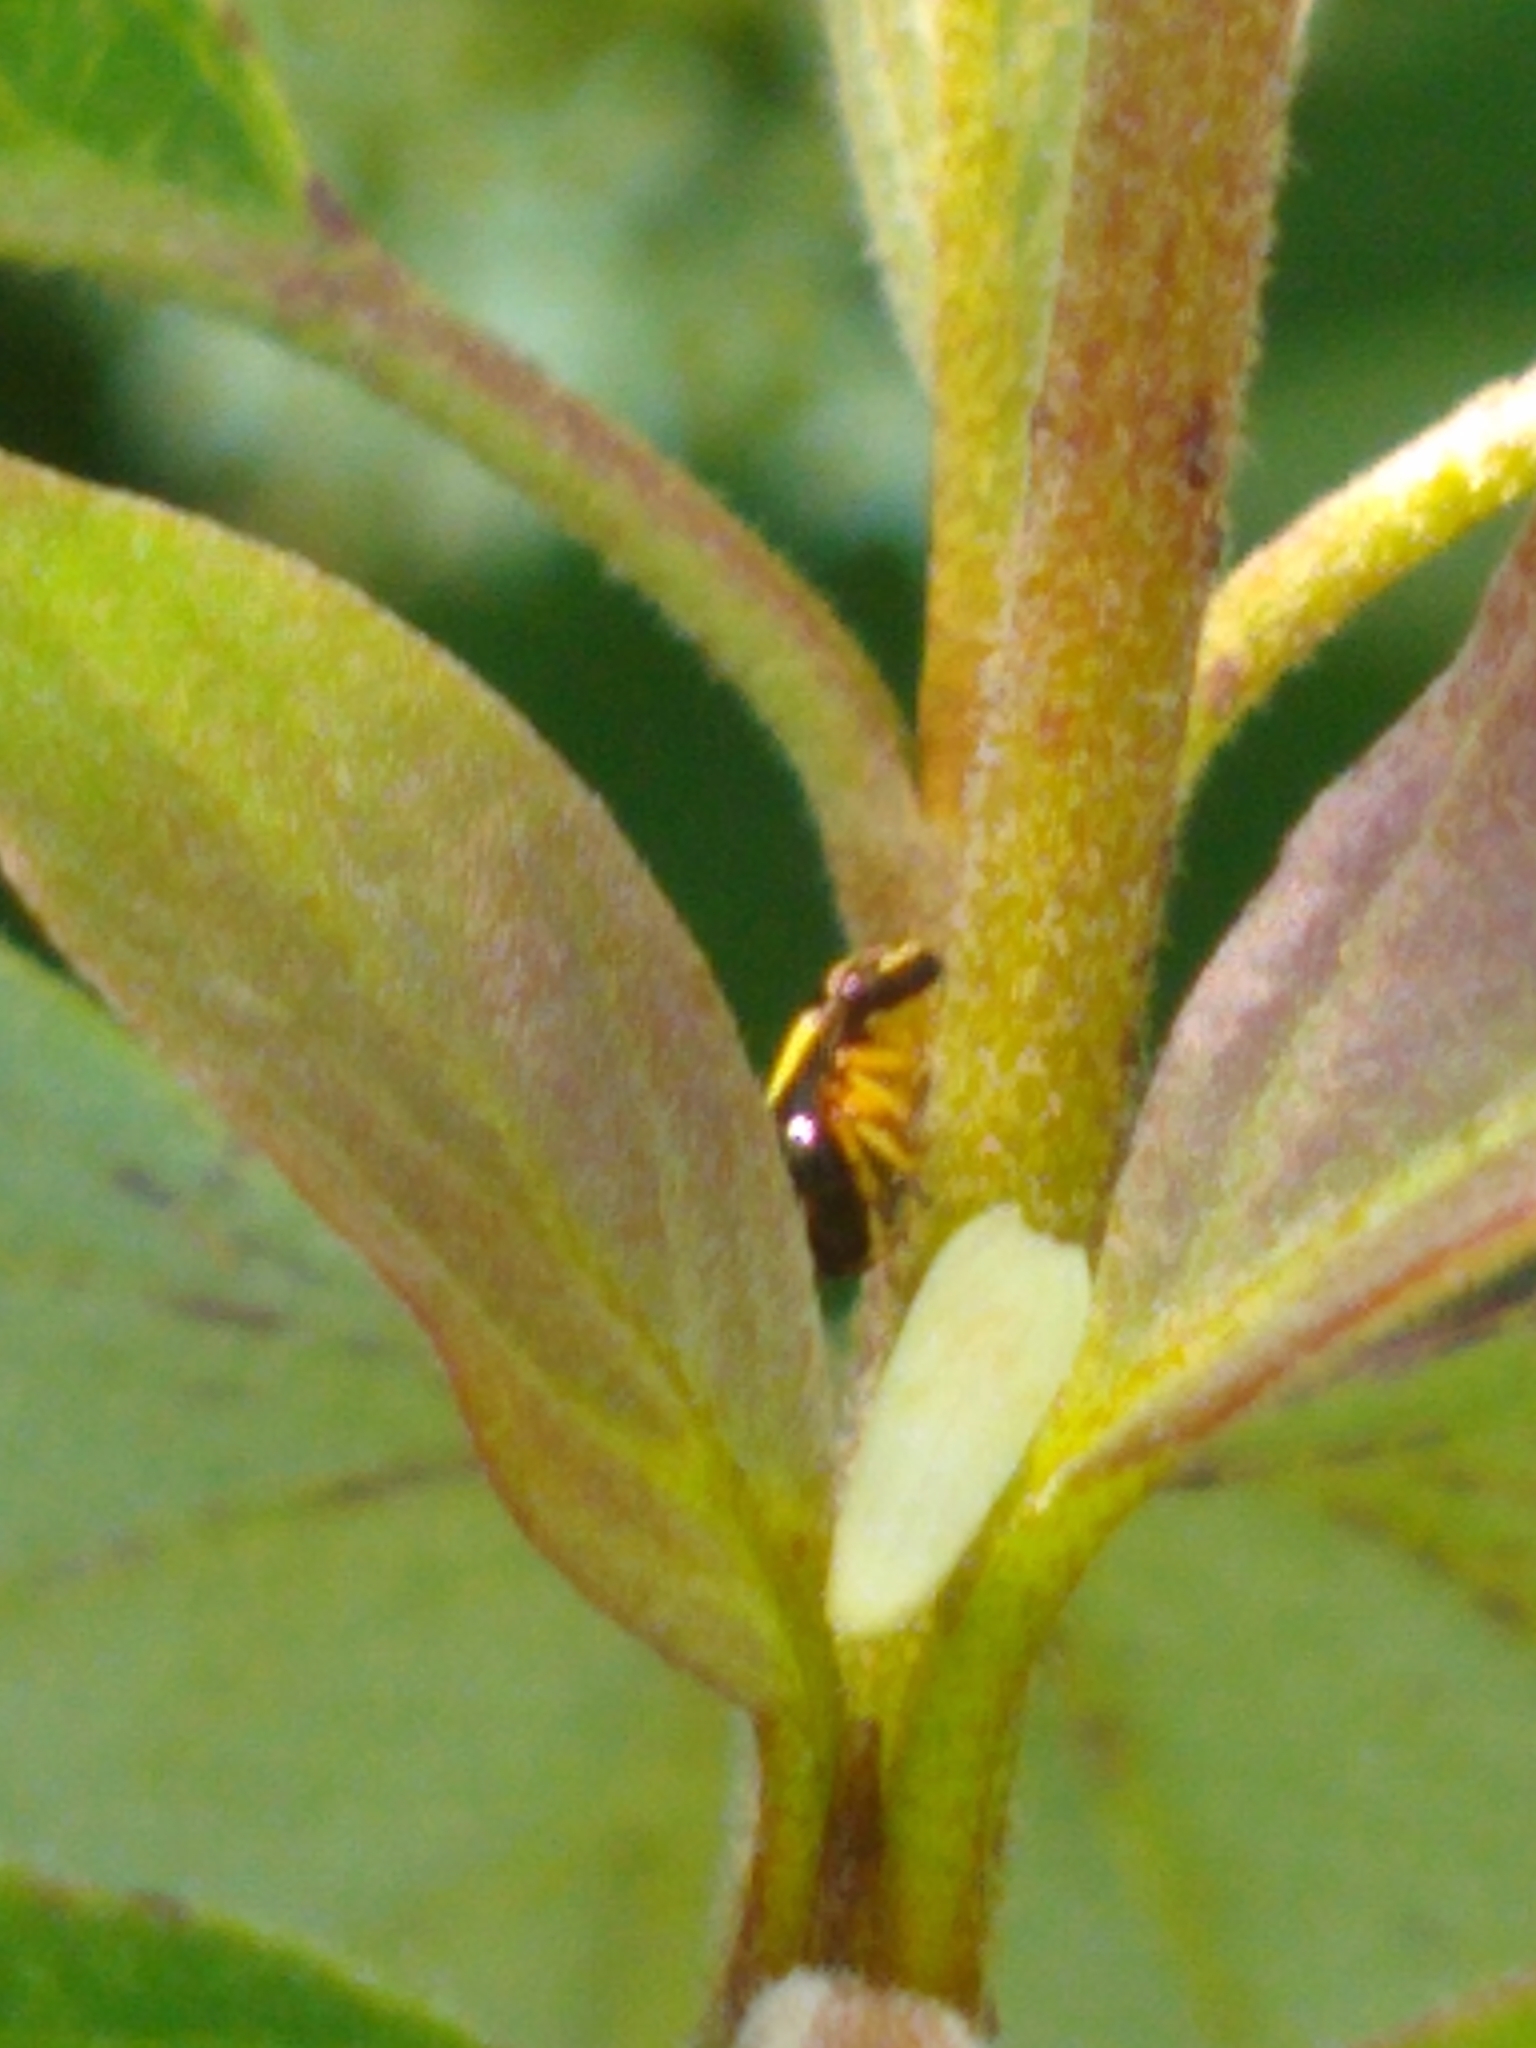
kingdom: Animalia
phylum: Arthropoda
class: Insecta
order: Hemiptera
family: Clastopteridae
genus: Clastoptera
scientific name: Clastoptera proteus
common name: Dogwood spittlebug
